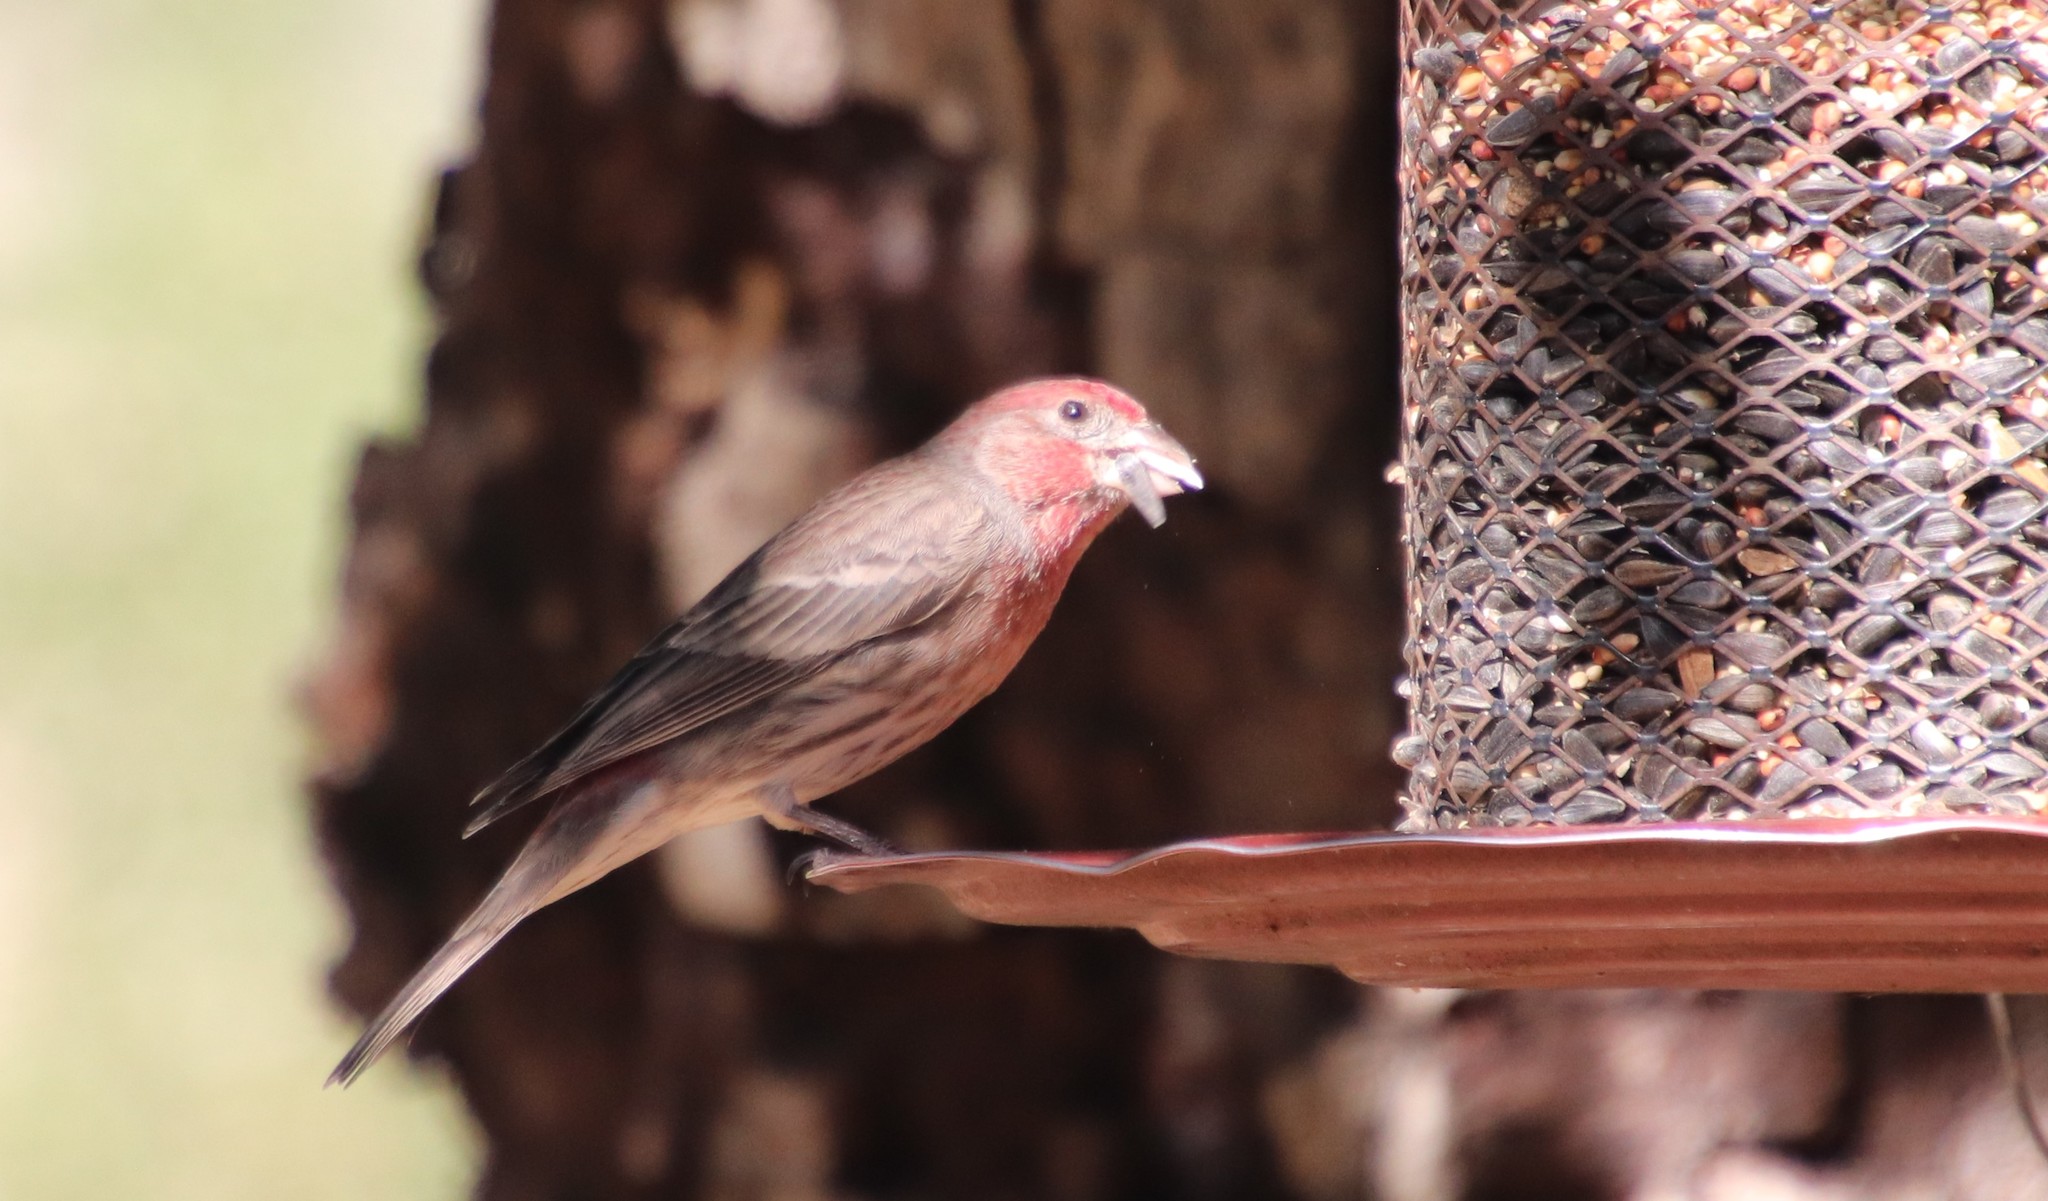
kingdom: Animalia
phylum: Chordata
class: Aves
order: Passeriformes
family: Fringillidae
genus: Haemorhous
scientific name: Haemorhous mexicanus
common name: House finch
